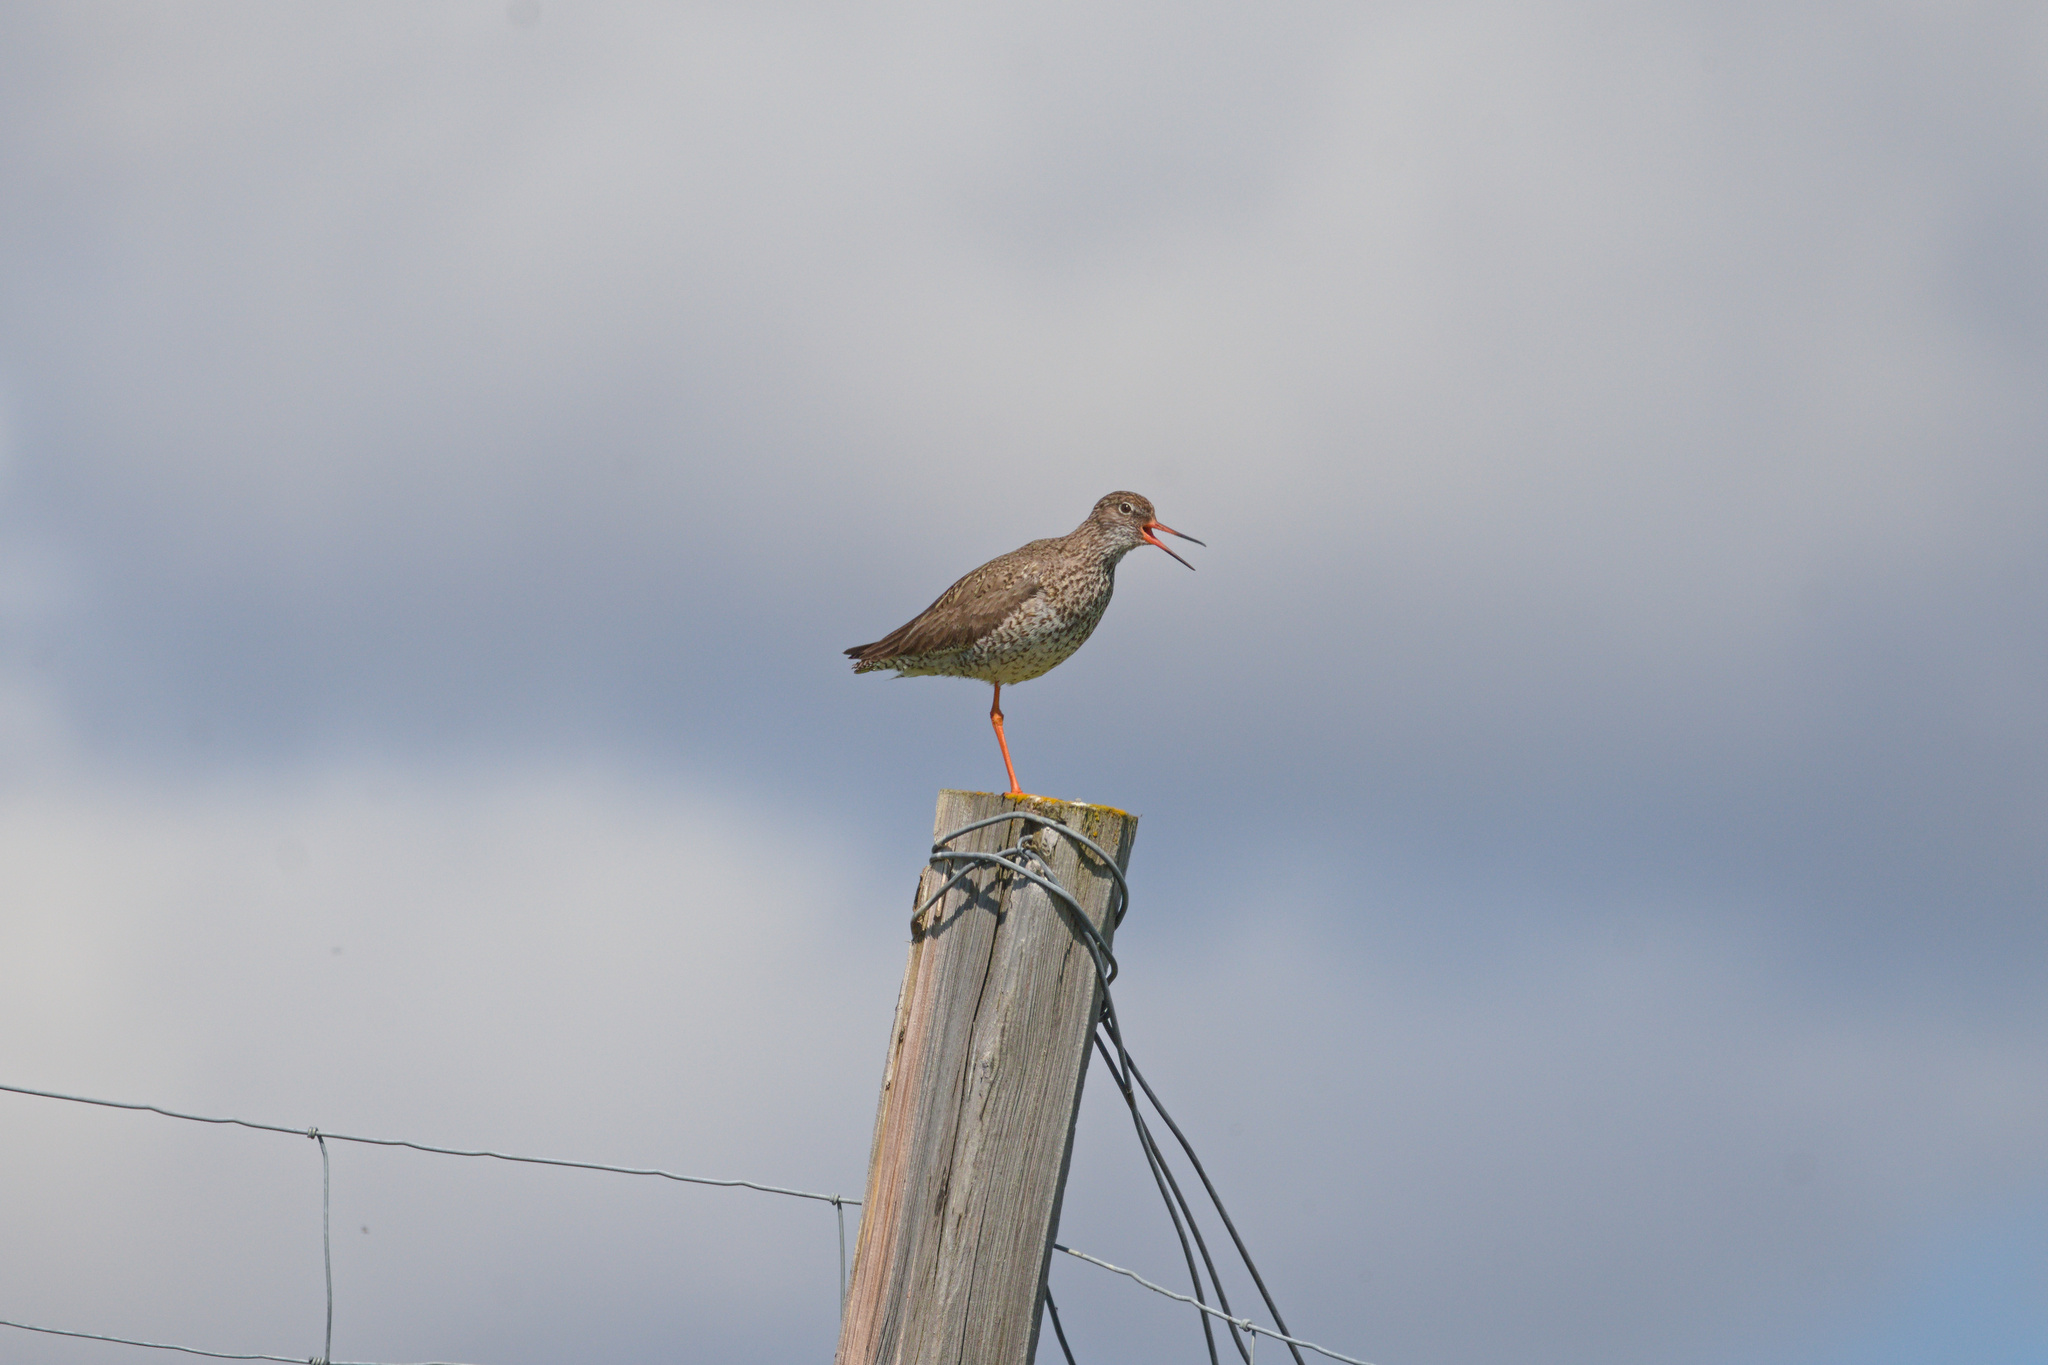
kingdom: Animalia
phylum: Chordata
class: Aves
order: Charadriiformes
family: Scolopacidae
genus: Tringa
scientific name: Tringa totanus
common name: Common redshank
